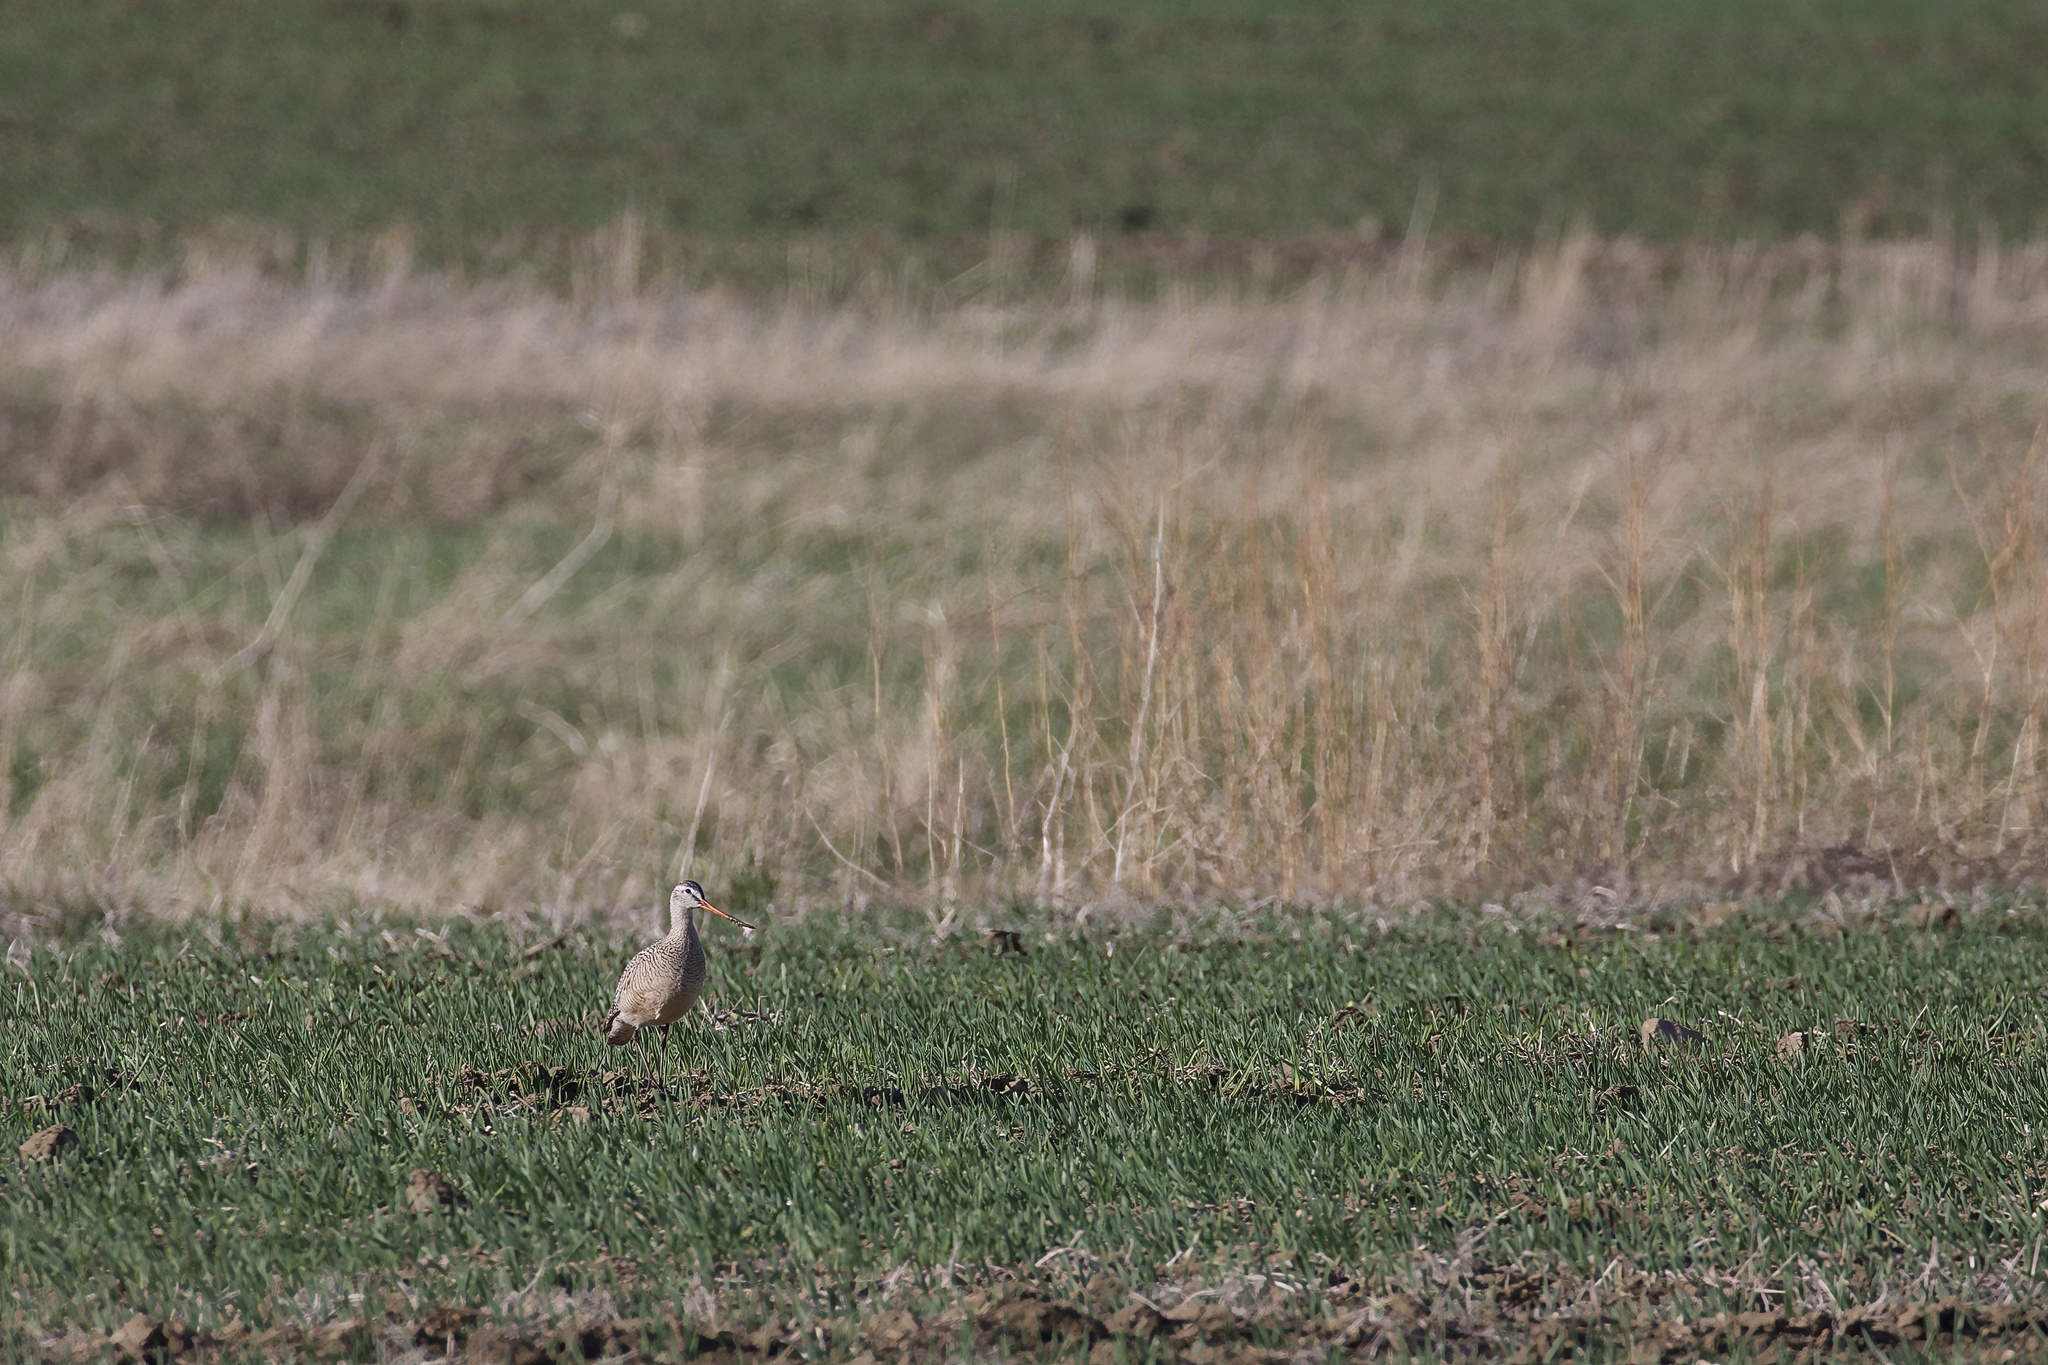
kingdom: Animalia
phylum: Chordata
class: Aves
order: Charadriiformes
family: Scolopacidae
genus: Limosa
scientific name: Limosa fedoa
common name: Marbled godwit
